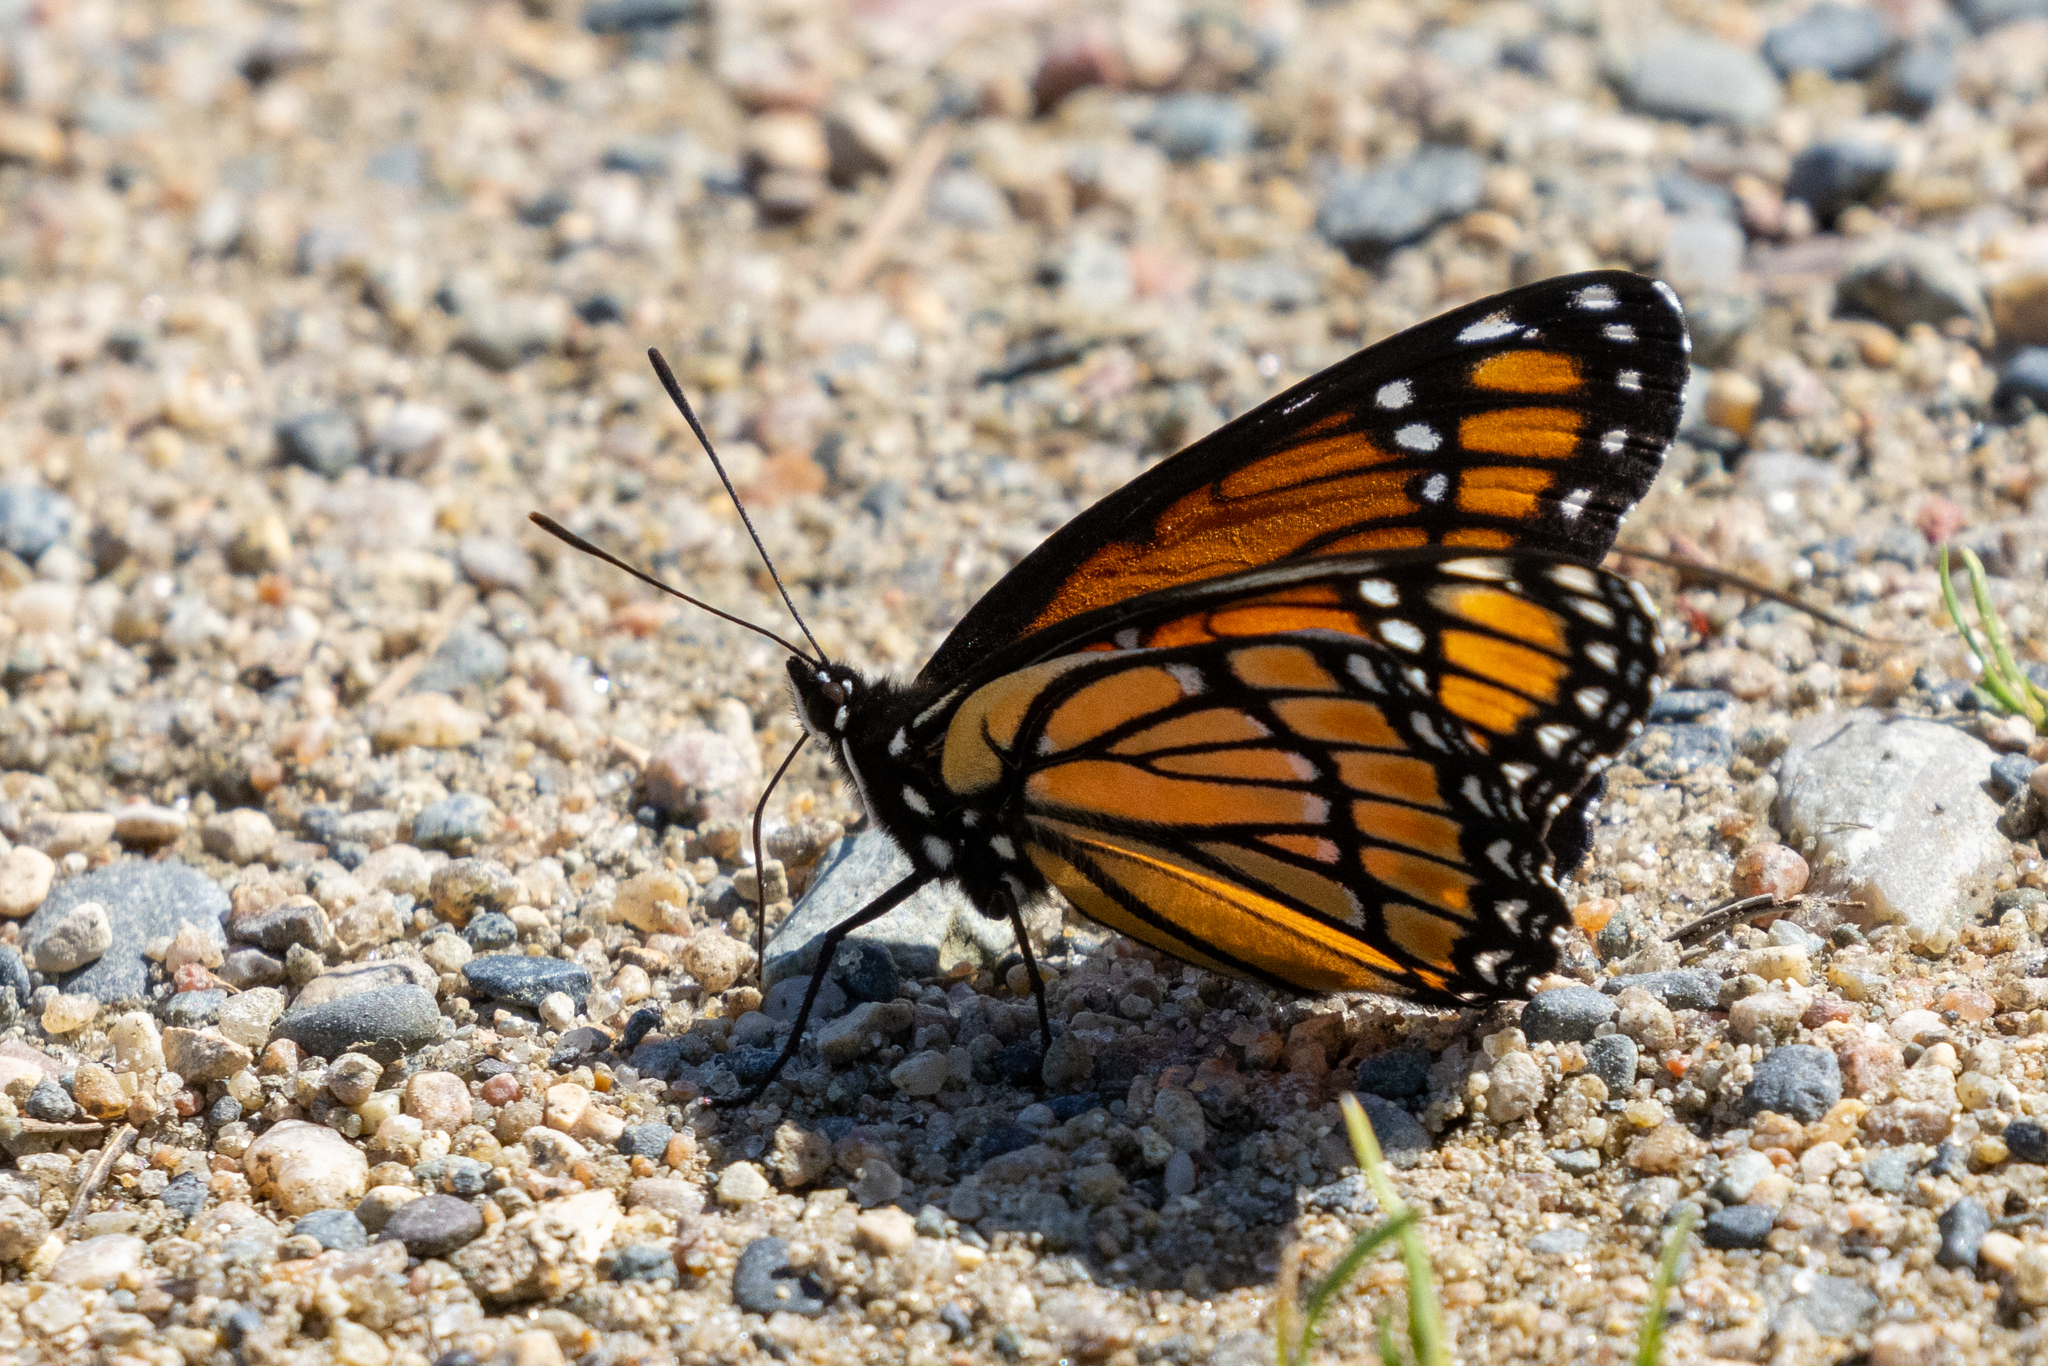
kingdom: Animalia
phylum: Arthropoda
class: Insecta
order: Lepidoptera
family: Nymphalidae
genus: Limenitis
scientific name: Limenitis archippus
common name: Viceroy
